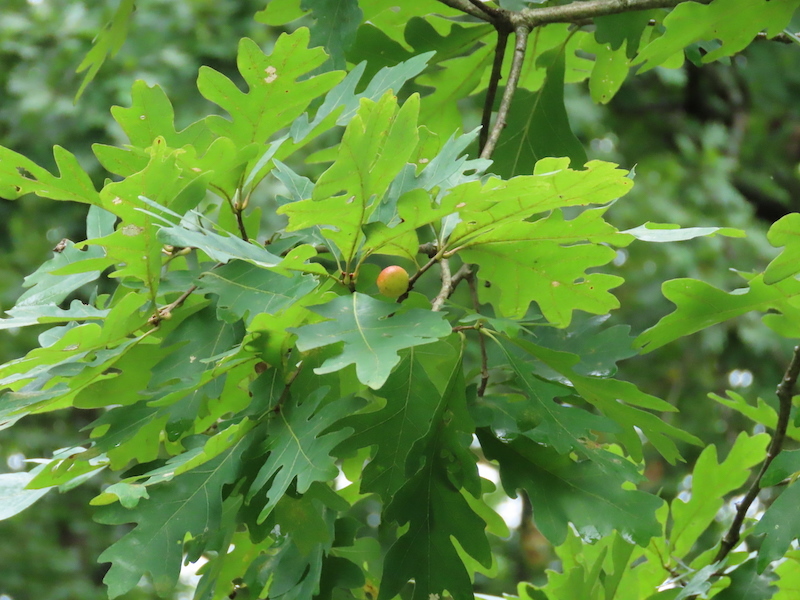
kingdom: Animalia
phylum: Arthropoda
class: Insecta
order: Hymenoptera
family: Cynipidae
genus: Disholcaspis
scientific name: Disholcaspis quercusglobulus
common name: Round bullet gall wasp
